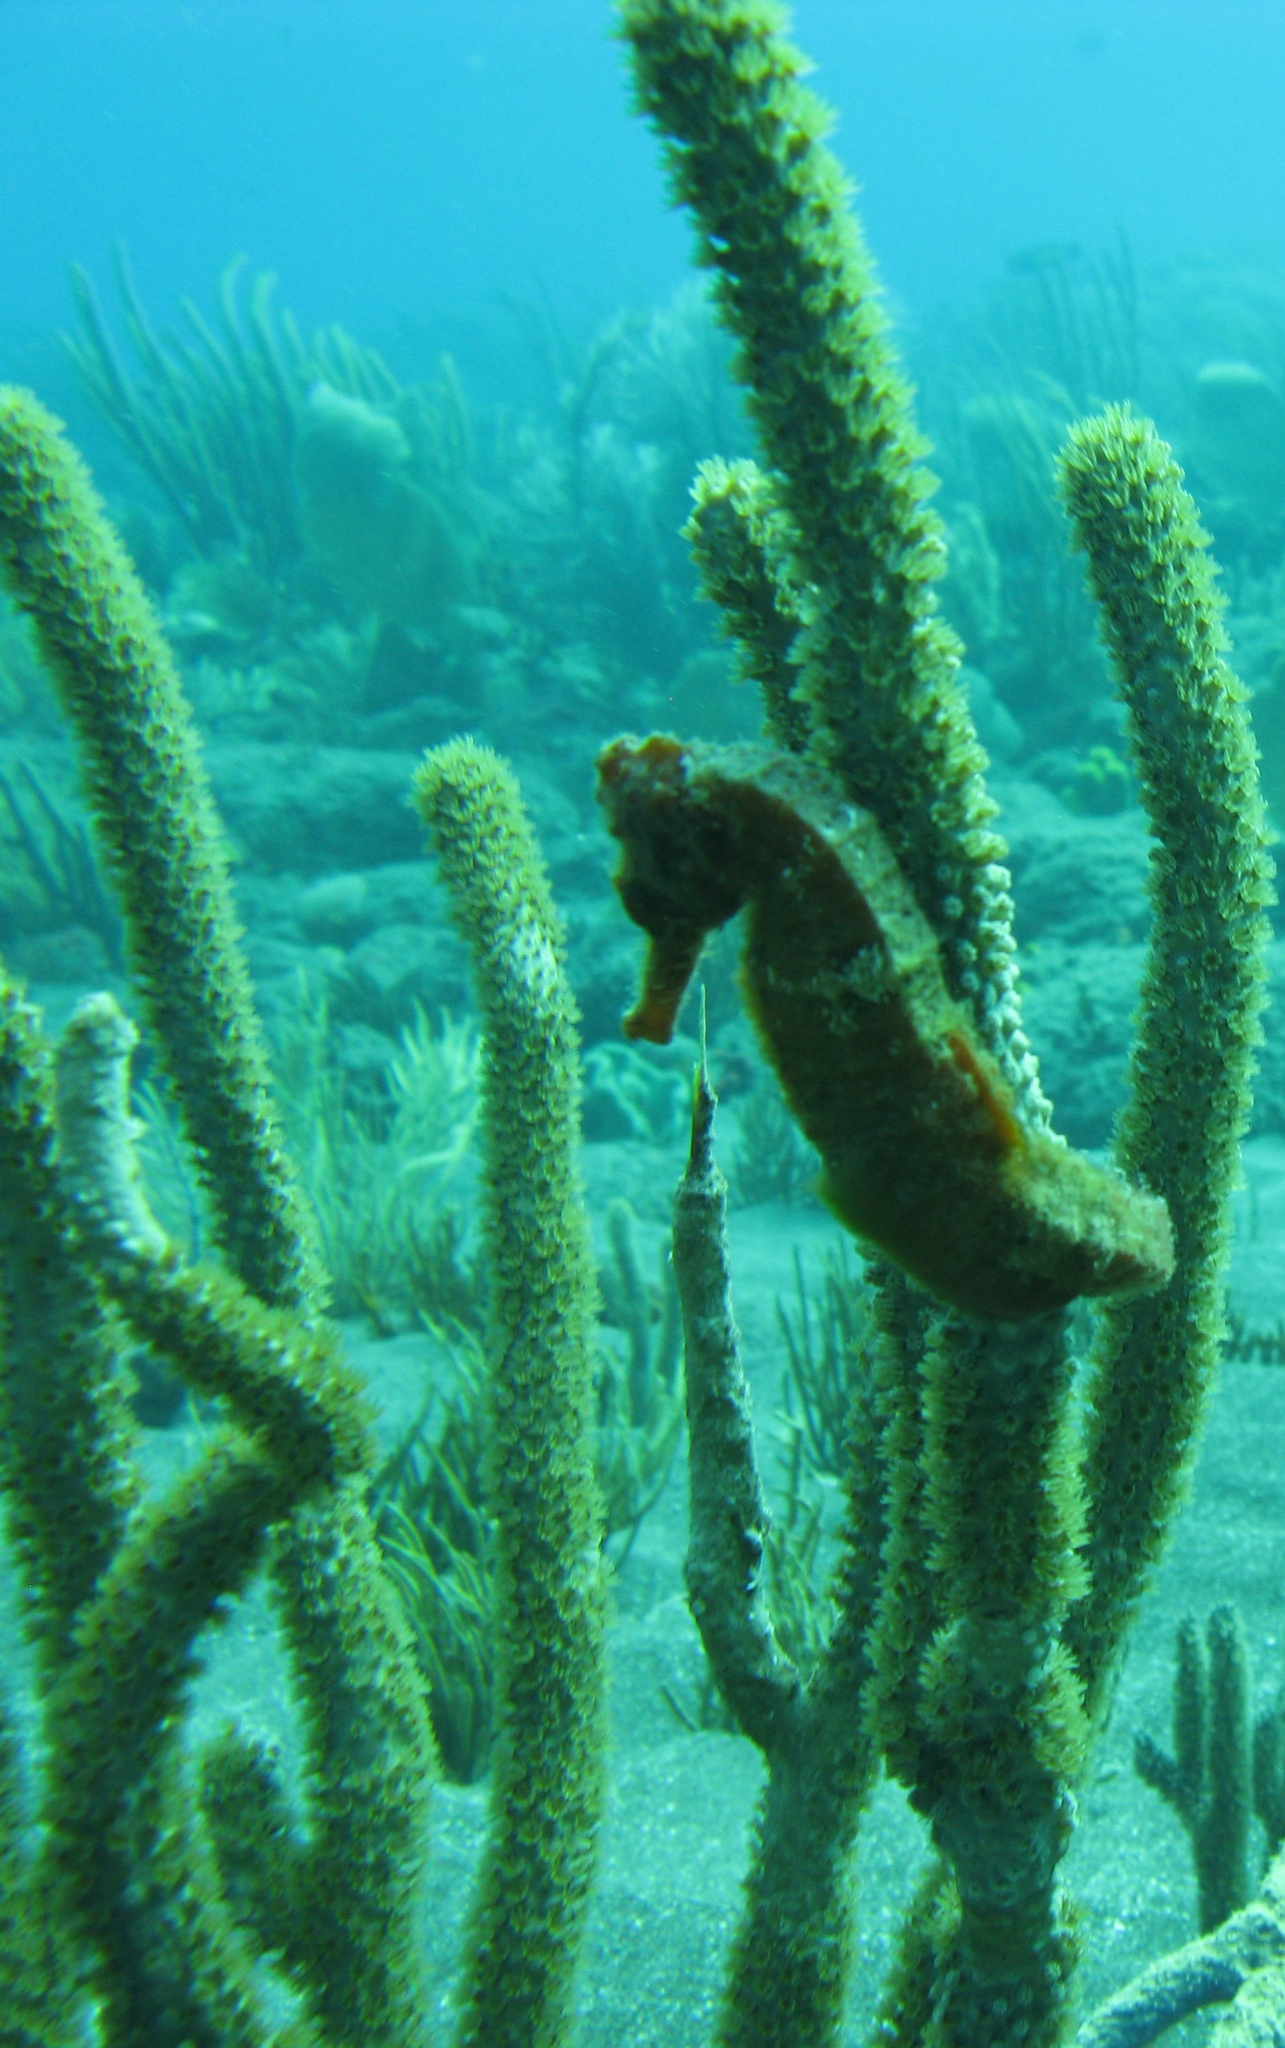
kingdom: Animalia
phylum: Chordata
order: Syngnathiformes
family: Syngnathidae
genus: Hippocampus
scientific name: Hippocampus reidi
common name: Slender seahorse
